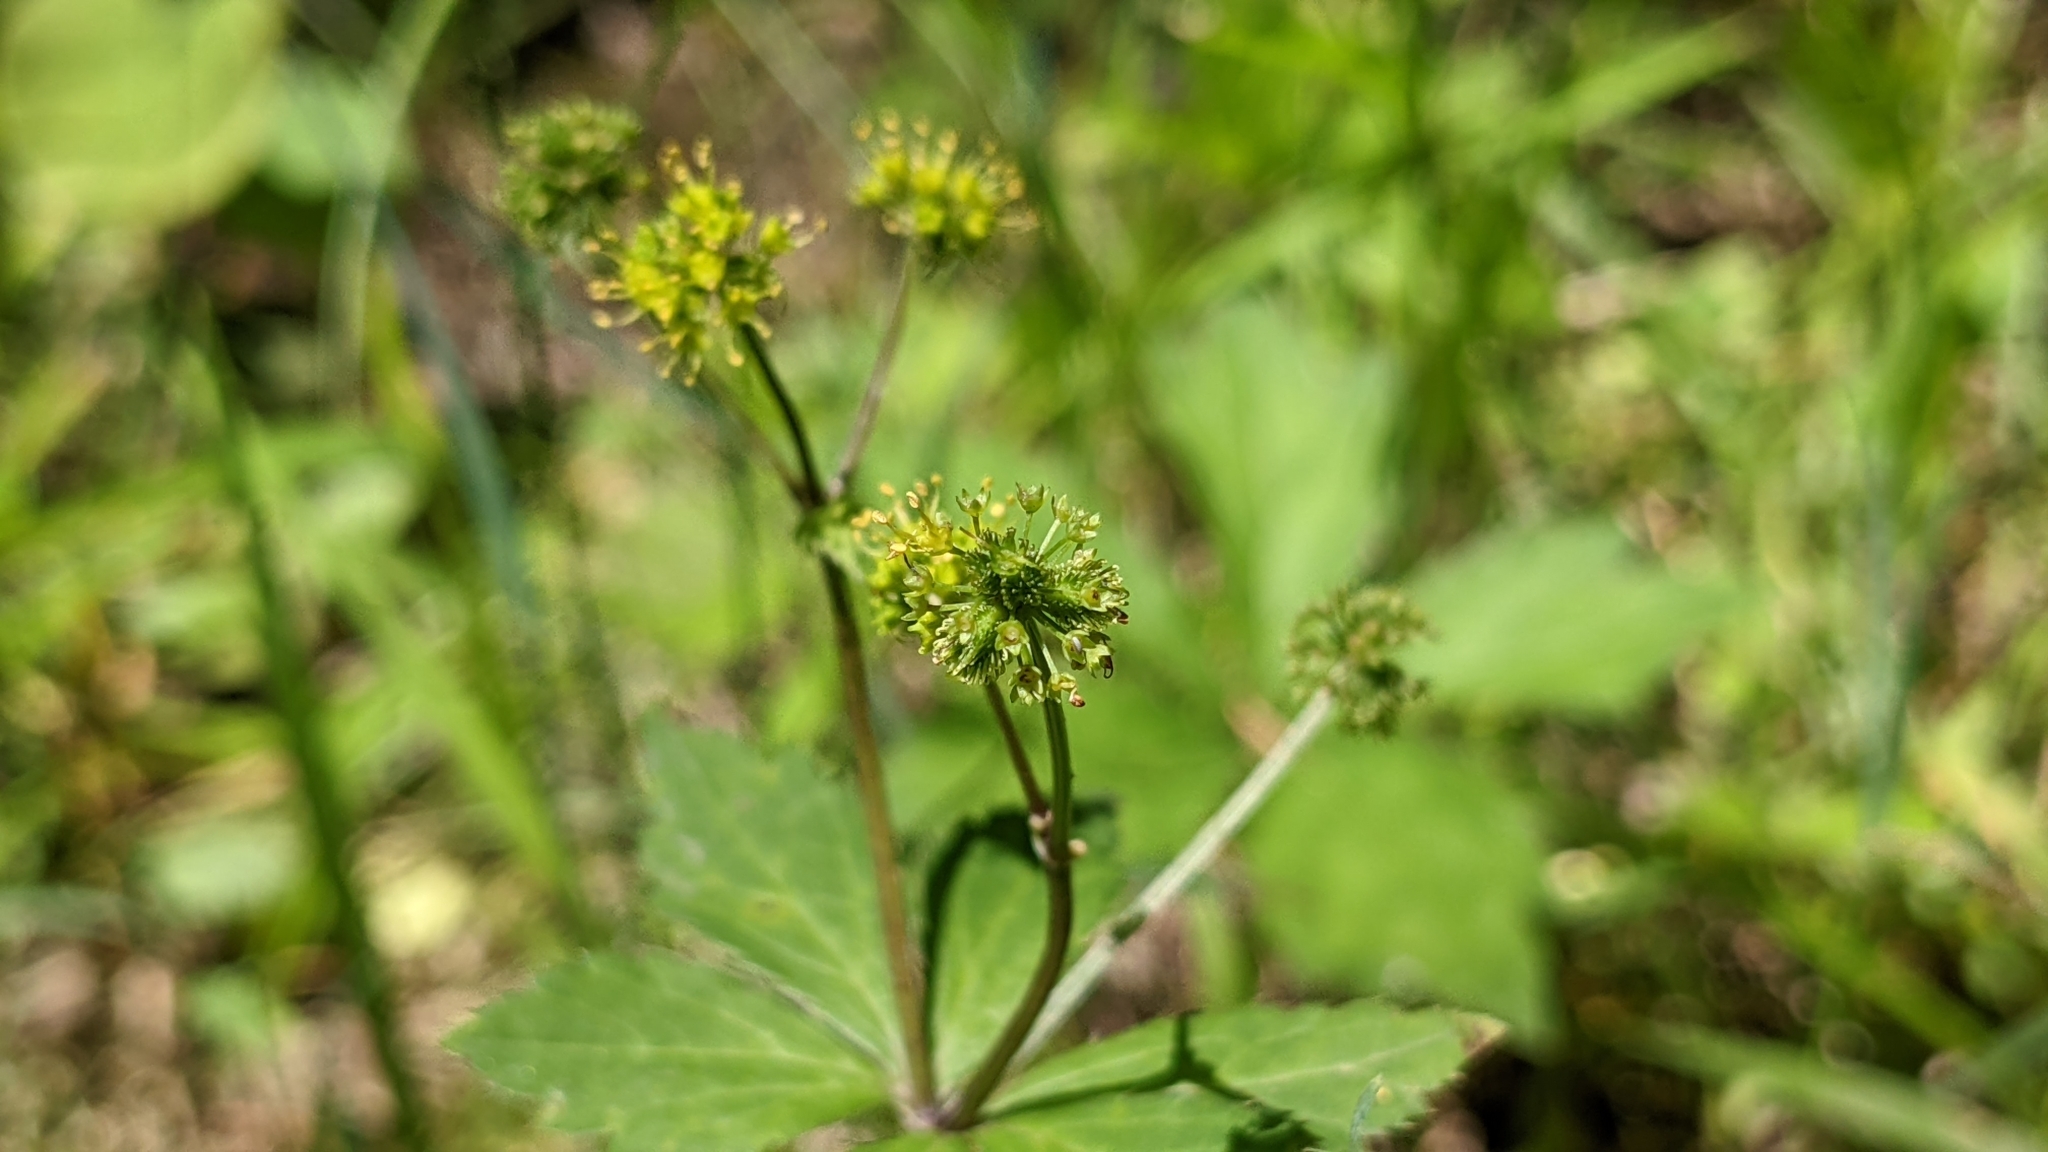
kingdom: Plantae
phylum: Tracheophyta
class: Magnoliopsida
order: Apiales
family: Apiaceae
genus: Sanicula
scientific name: Sanicula odorata
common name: Cluster sanicle
